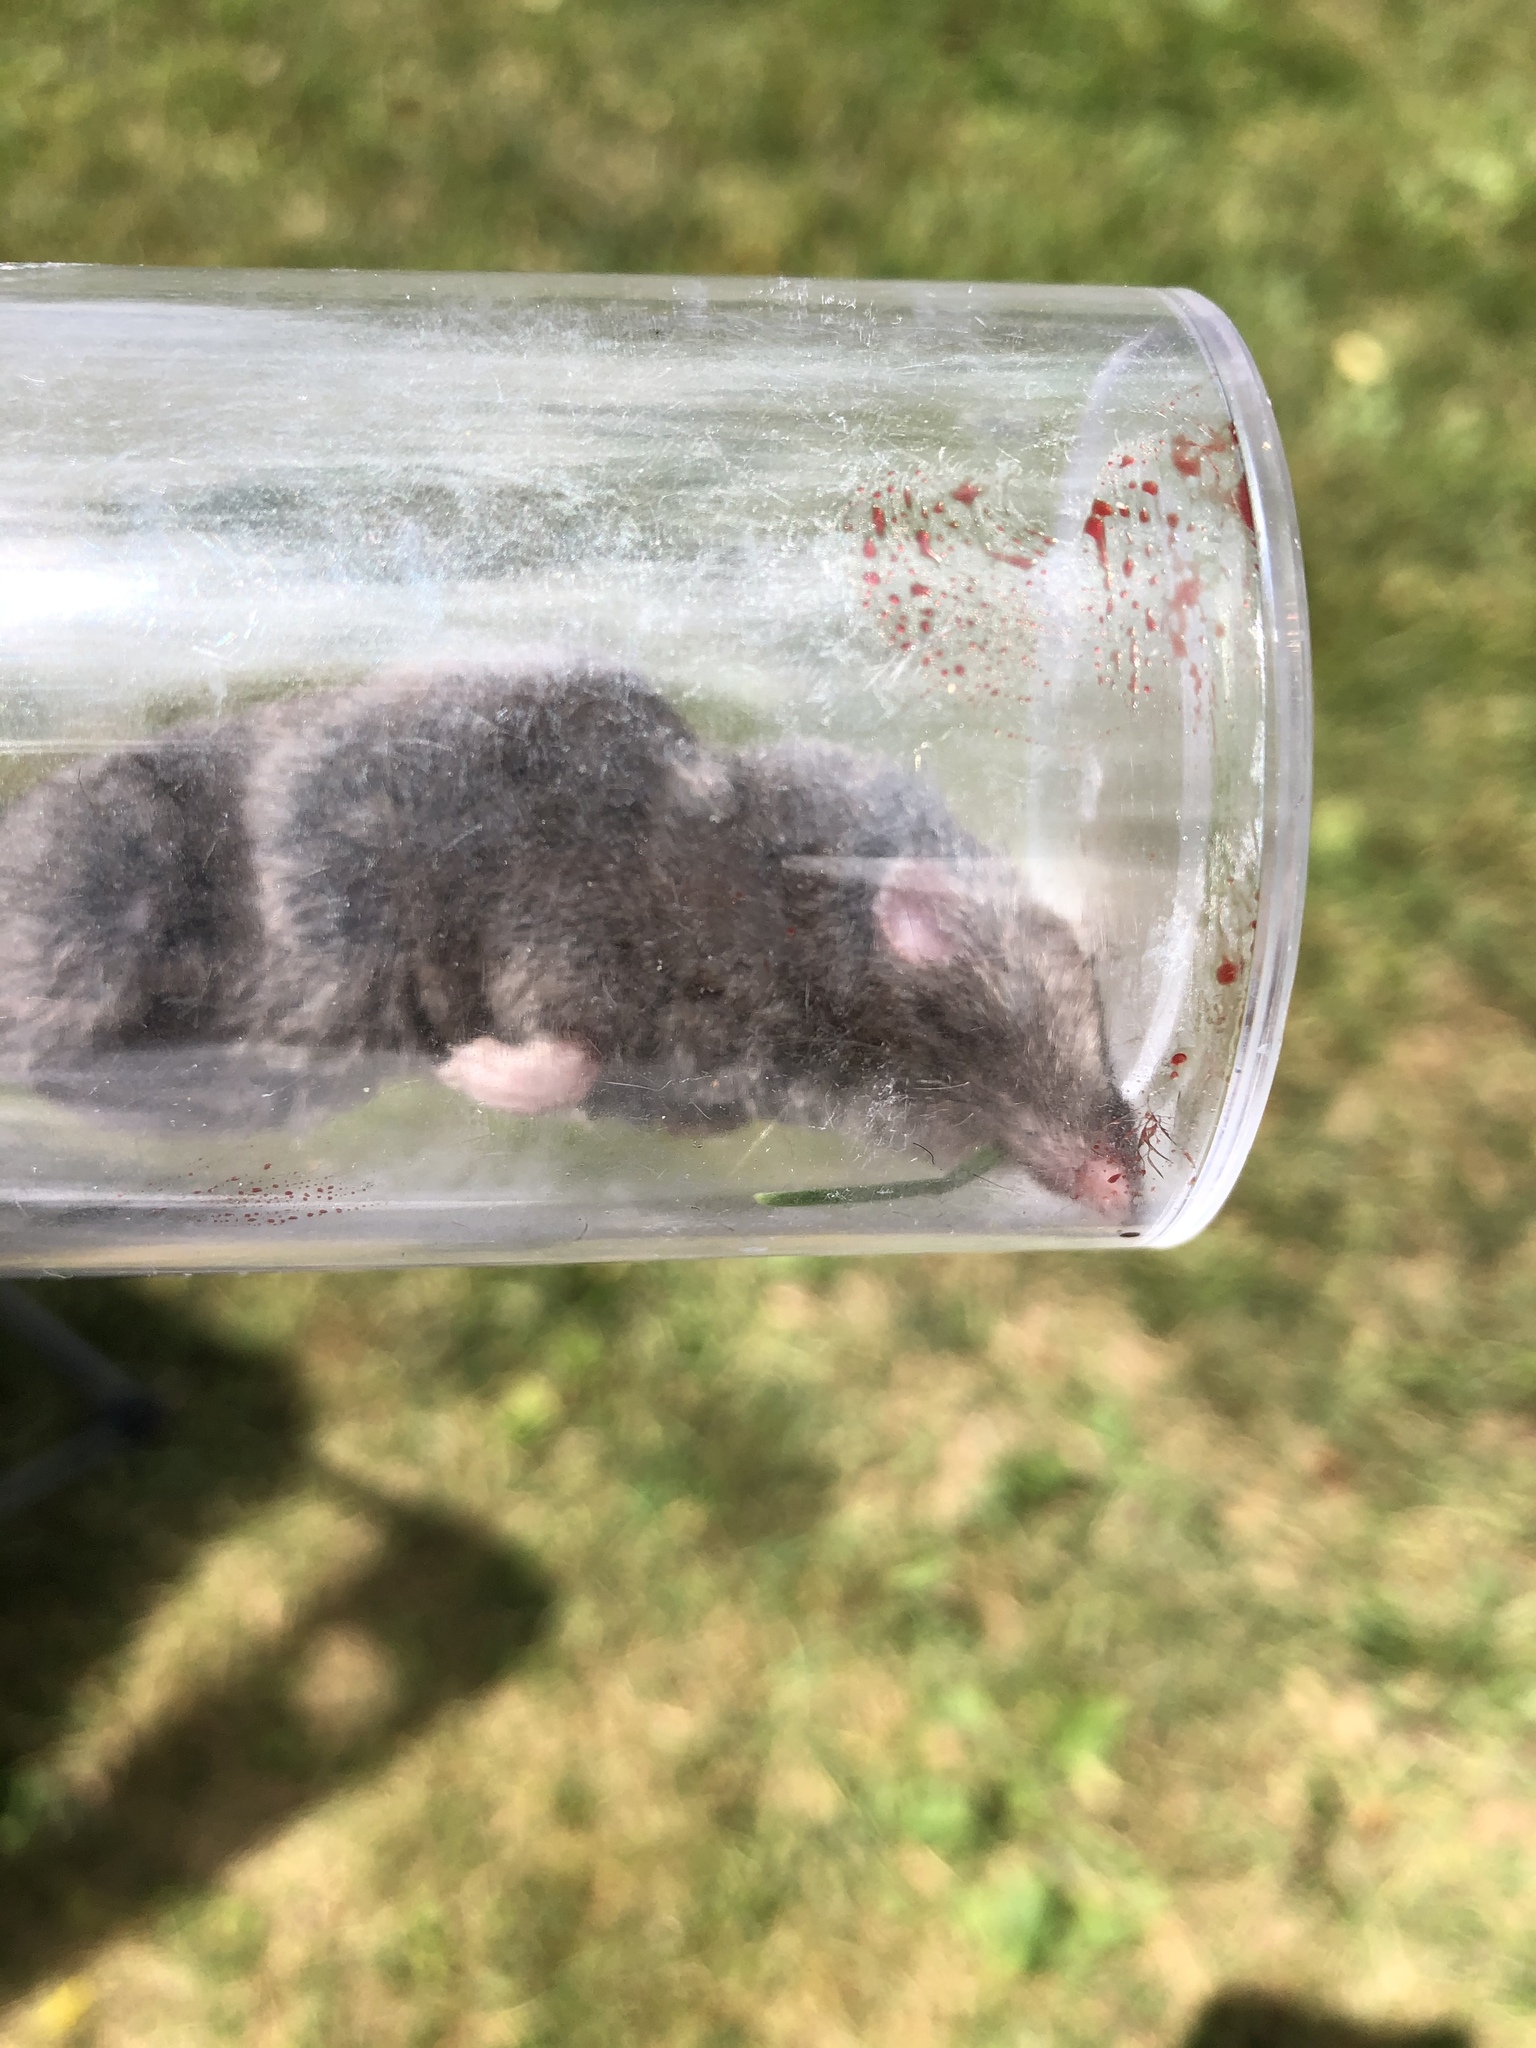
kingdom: Animalia
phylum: Chordata
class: Mammalia
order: Soricomorpha
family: Soricidae
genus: Blarina
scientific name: Blarina brevicauda
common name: Northern short-tailed shrew
